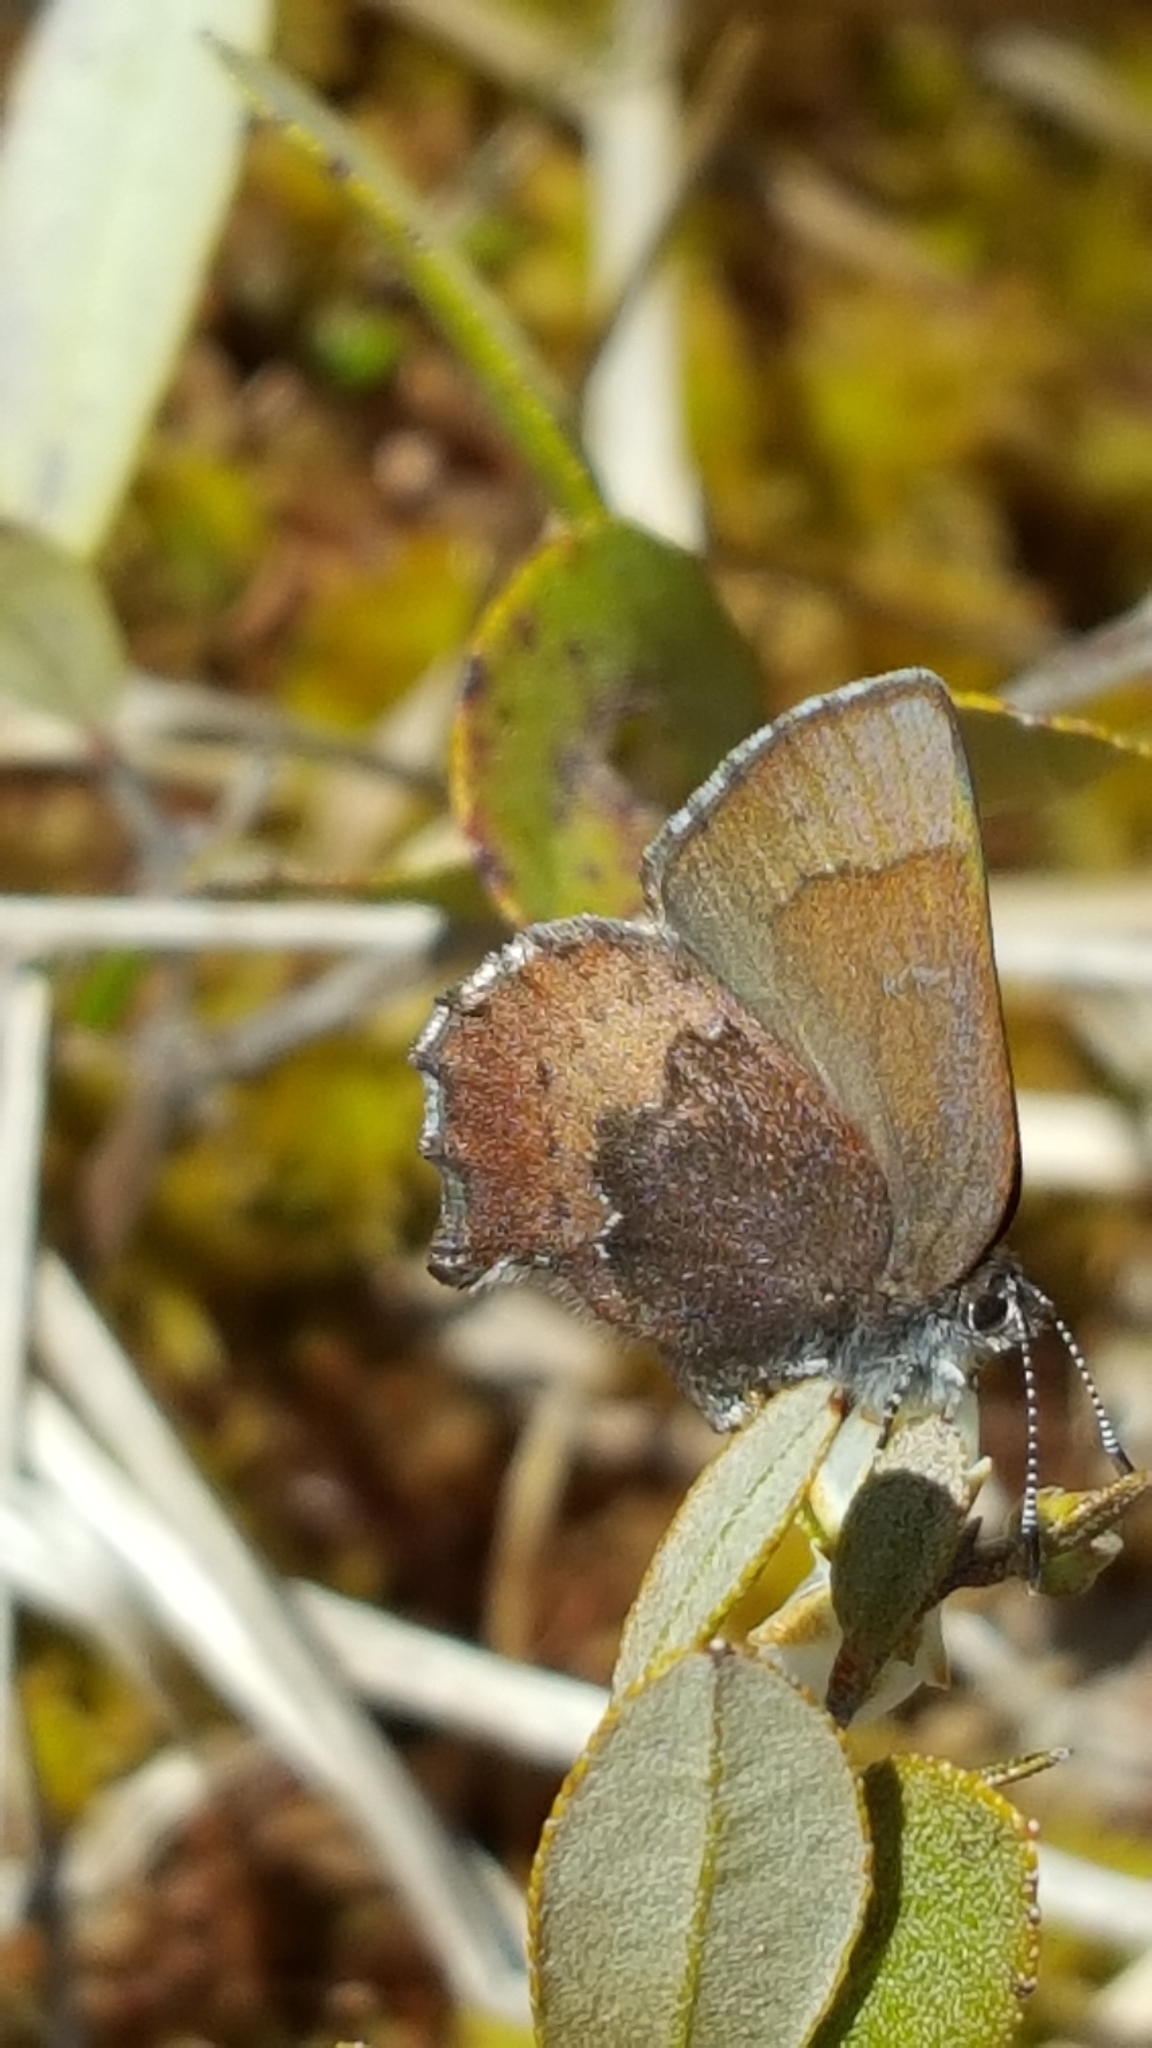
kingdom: Animalia
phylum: Arthropoda
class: Insecta
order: Lepidoptera
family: Lycaenidae
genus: Incisalia
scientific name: Incisalia irioides
